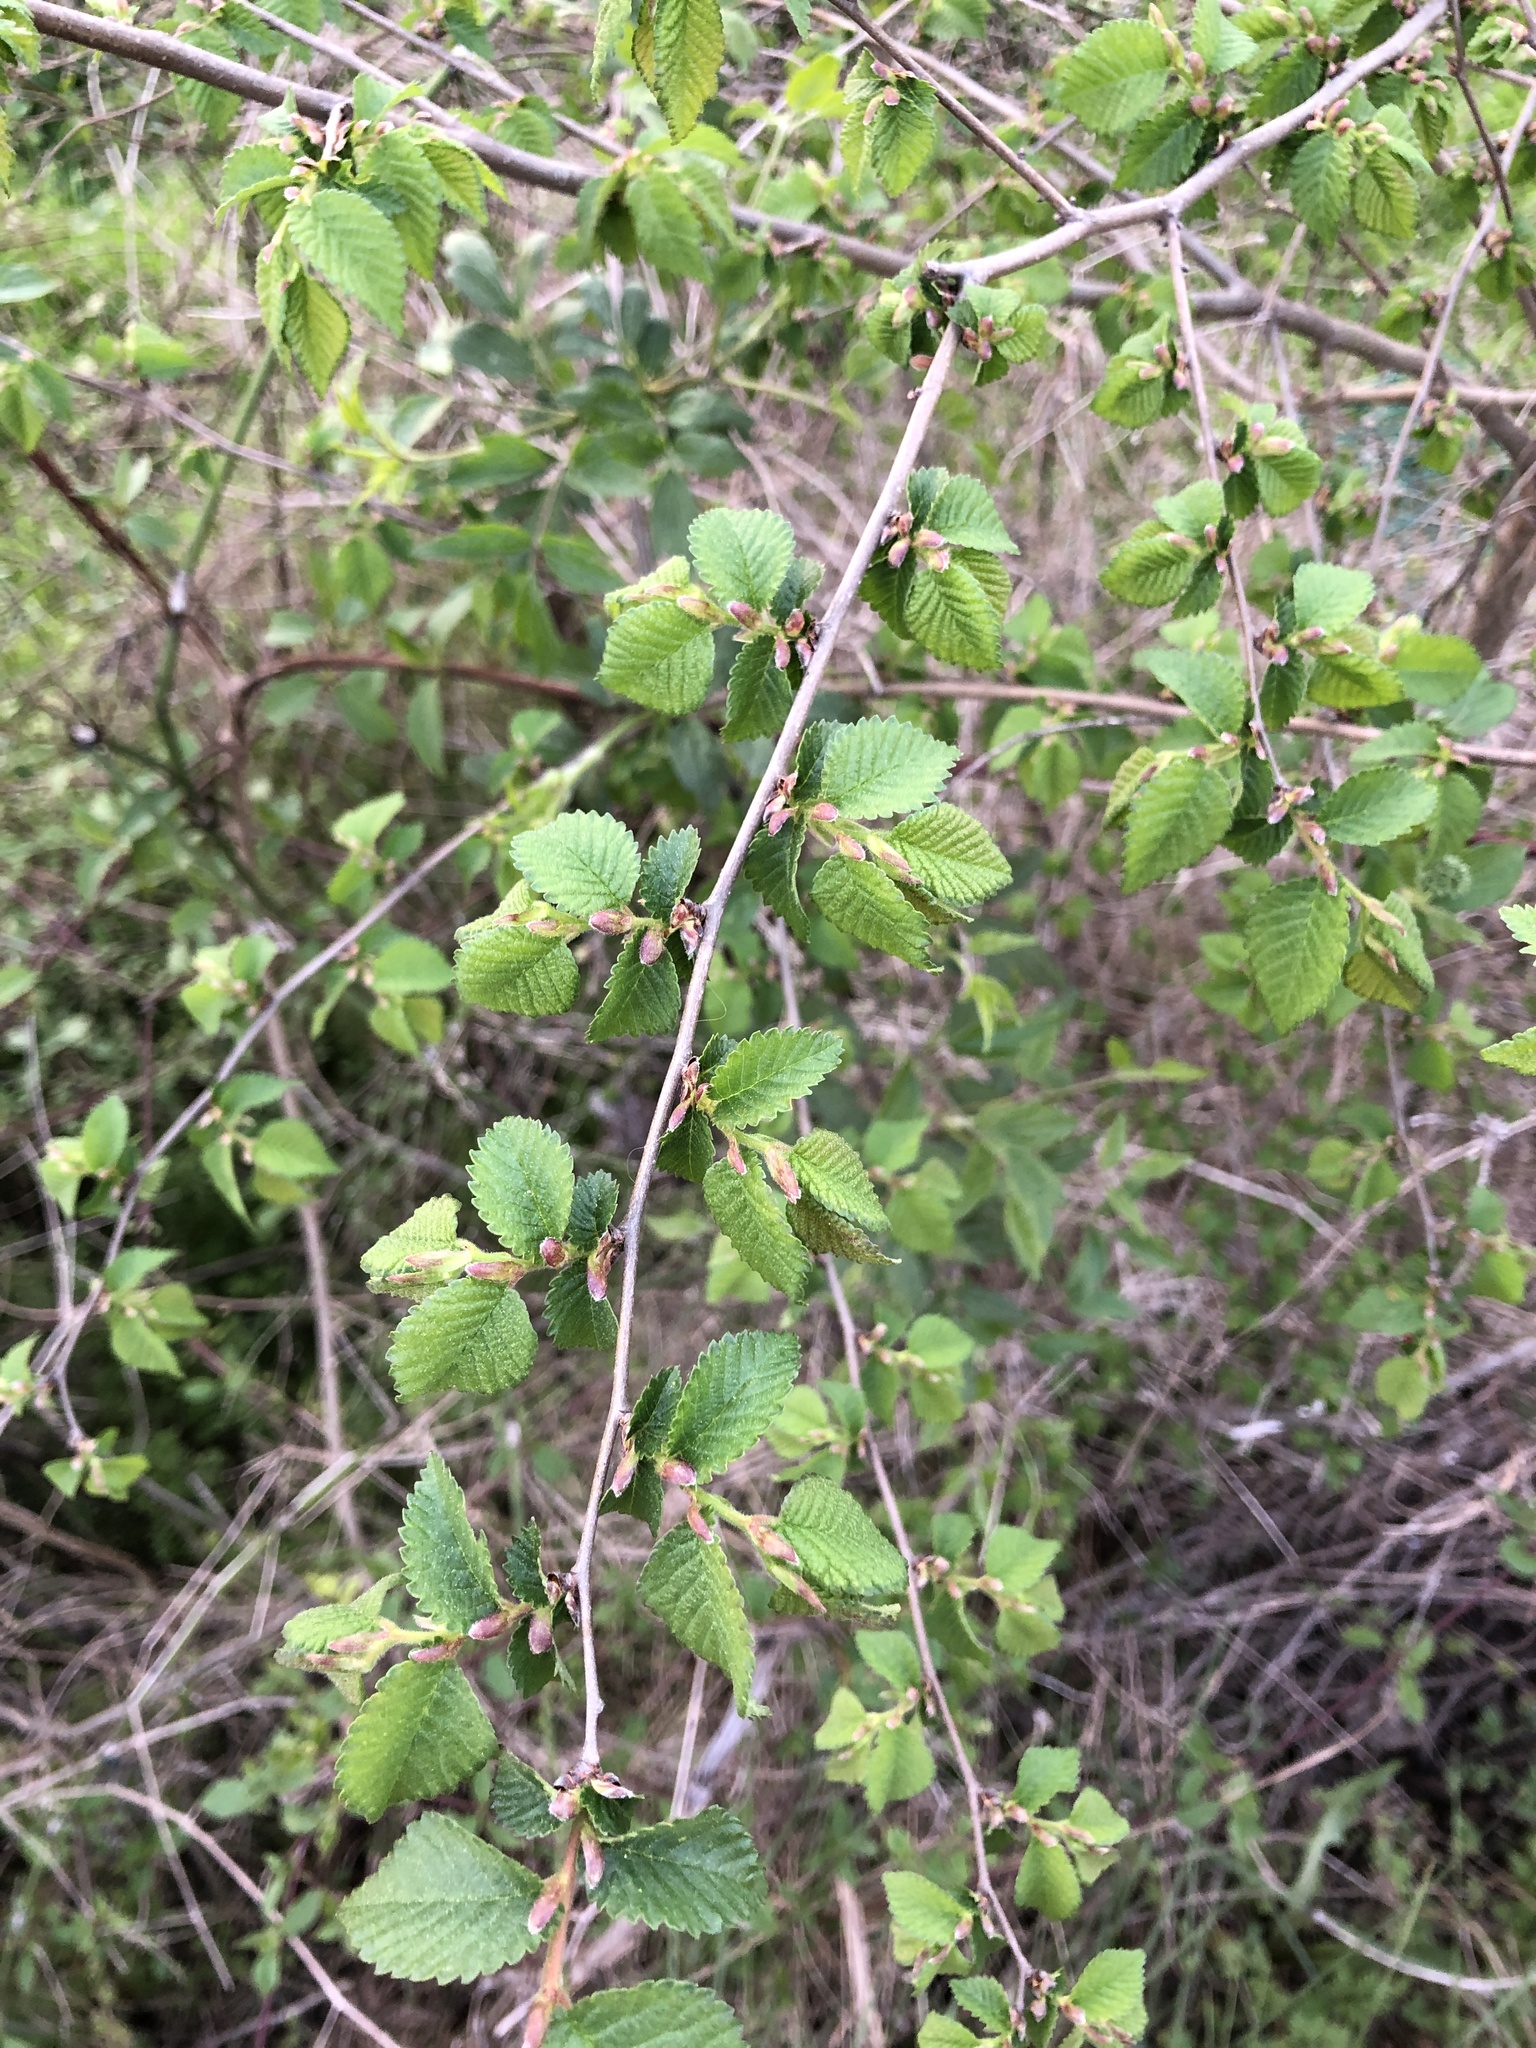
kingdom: Plantae
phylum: Tracheophyta
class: Magnoliopsida
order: Rosales
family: Ulmaceae
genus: Ulmus
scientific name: Ulmus minor
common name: Small-leaved elm
